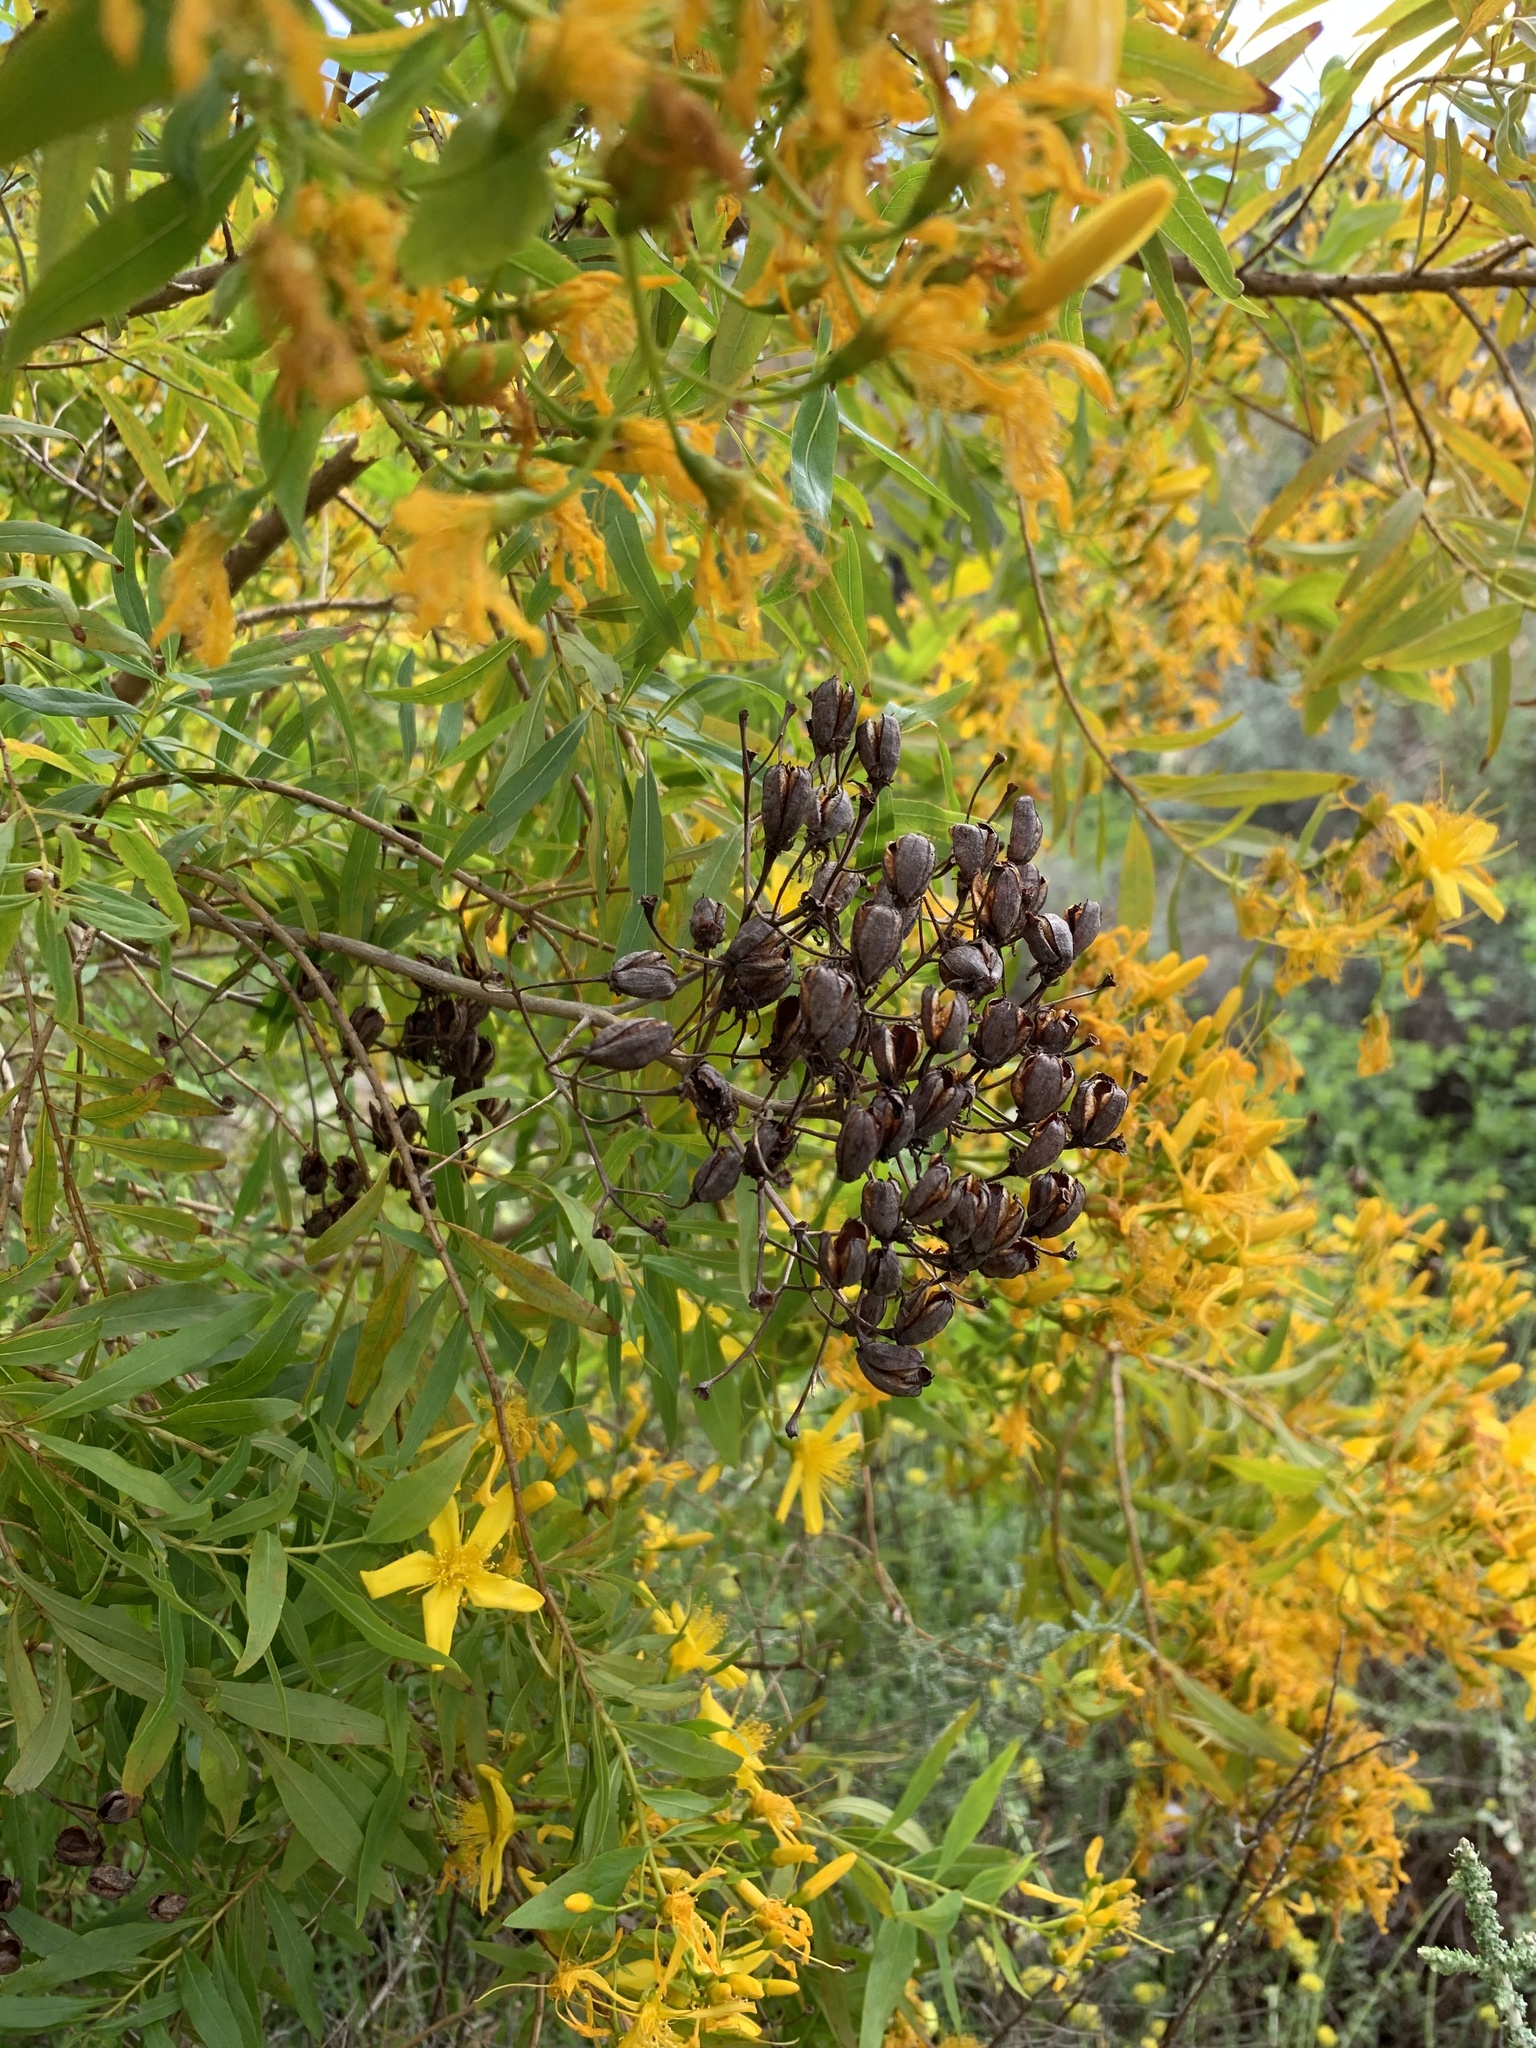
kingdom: Plantae
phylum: Tracheophyta
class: Magnoliopsida
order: Malpighiales
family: Hypericaceae
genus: Hypericum
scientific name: Hypericum canariense
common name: Canary island st. johnswort
